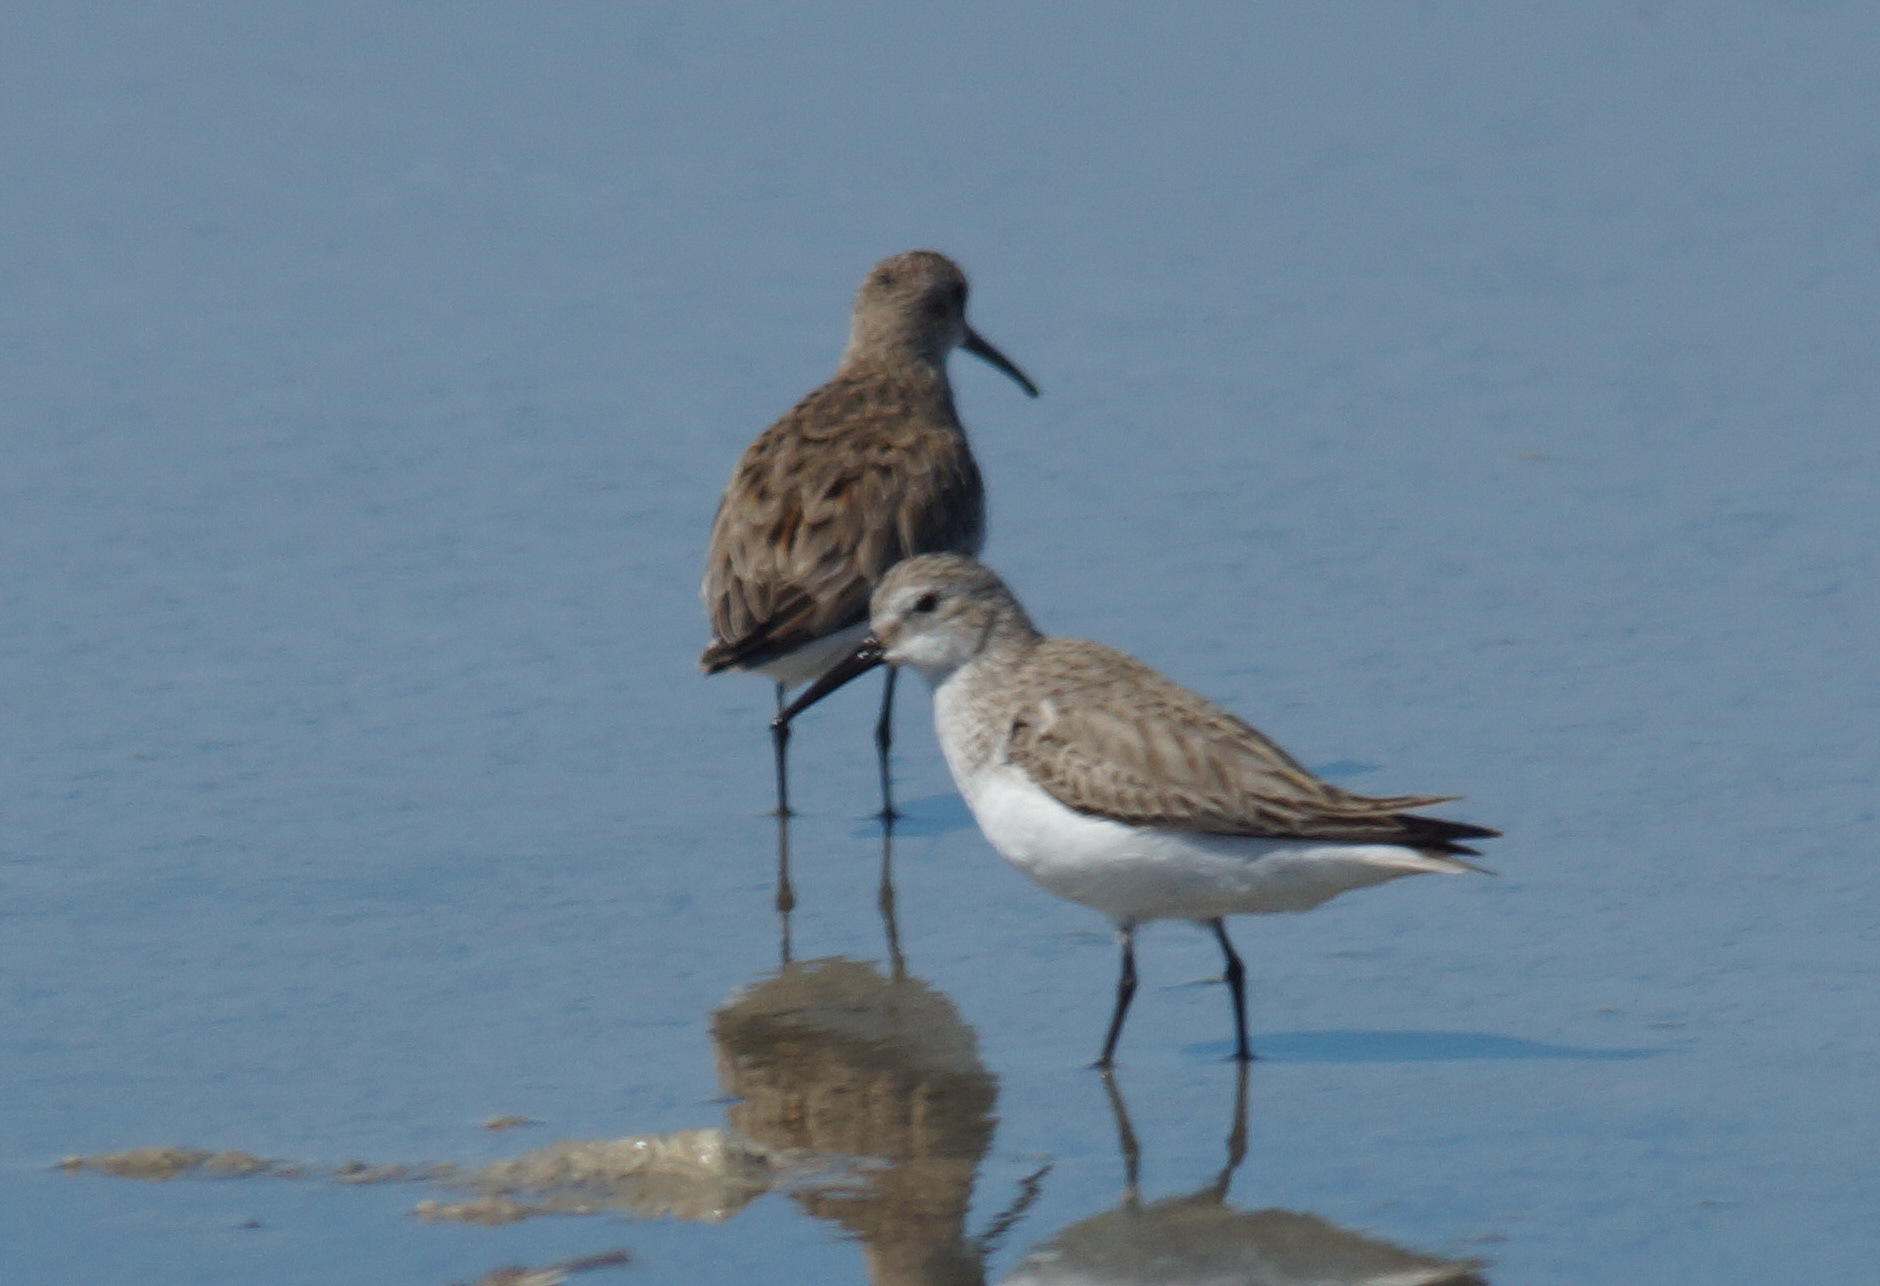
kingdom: Animalia
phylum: Chordata
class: Aves
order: Charadriiformes
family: Scolopacidae
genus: Calidris
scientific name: Calidris alpina
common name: Dunlin
